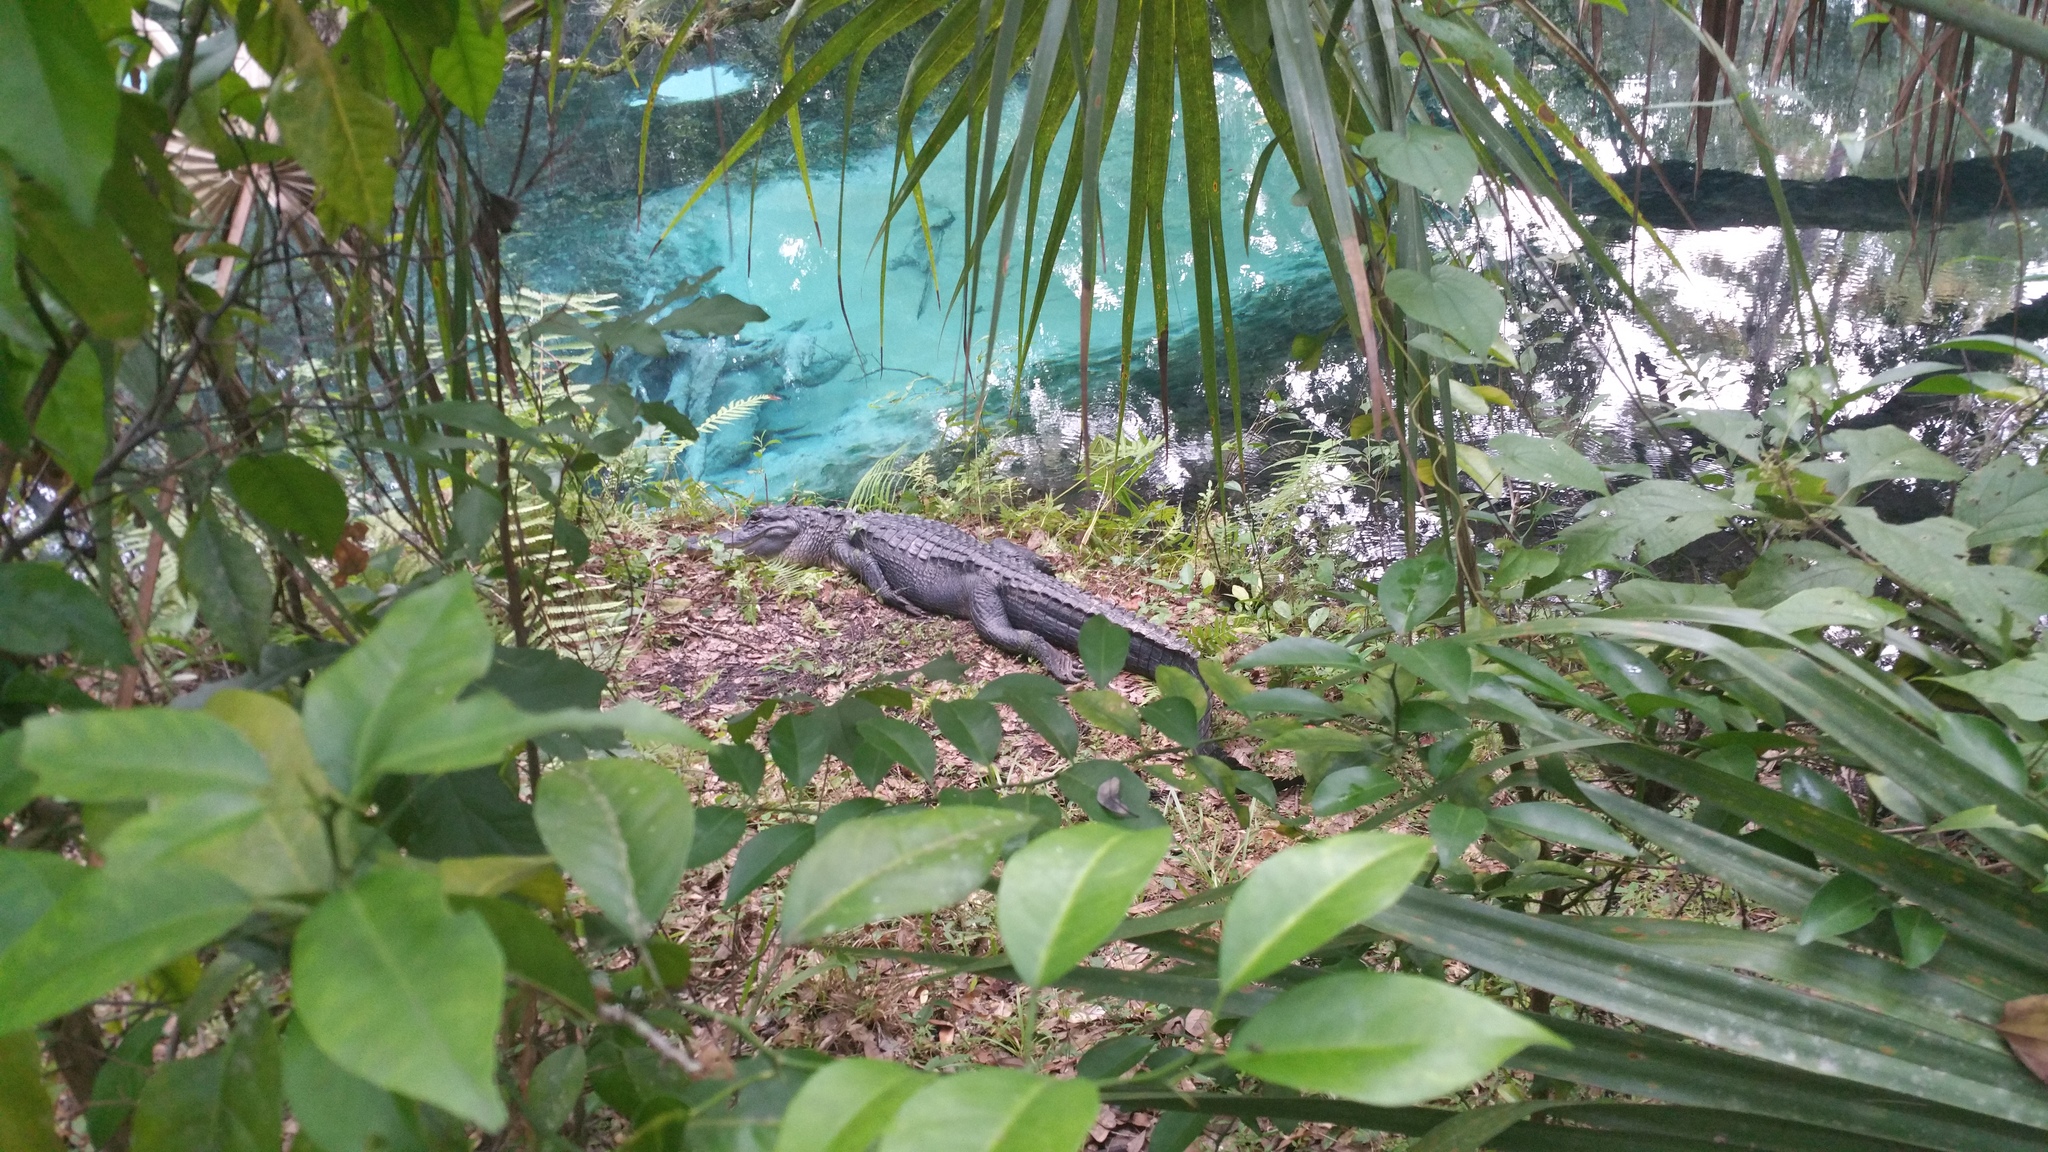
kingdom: Animalia
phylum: Chordata
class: Crocodylia
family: Alligatoridae
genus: Alligator
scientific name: Alligator mississippiensis
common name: American alligator
